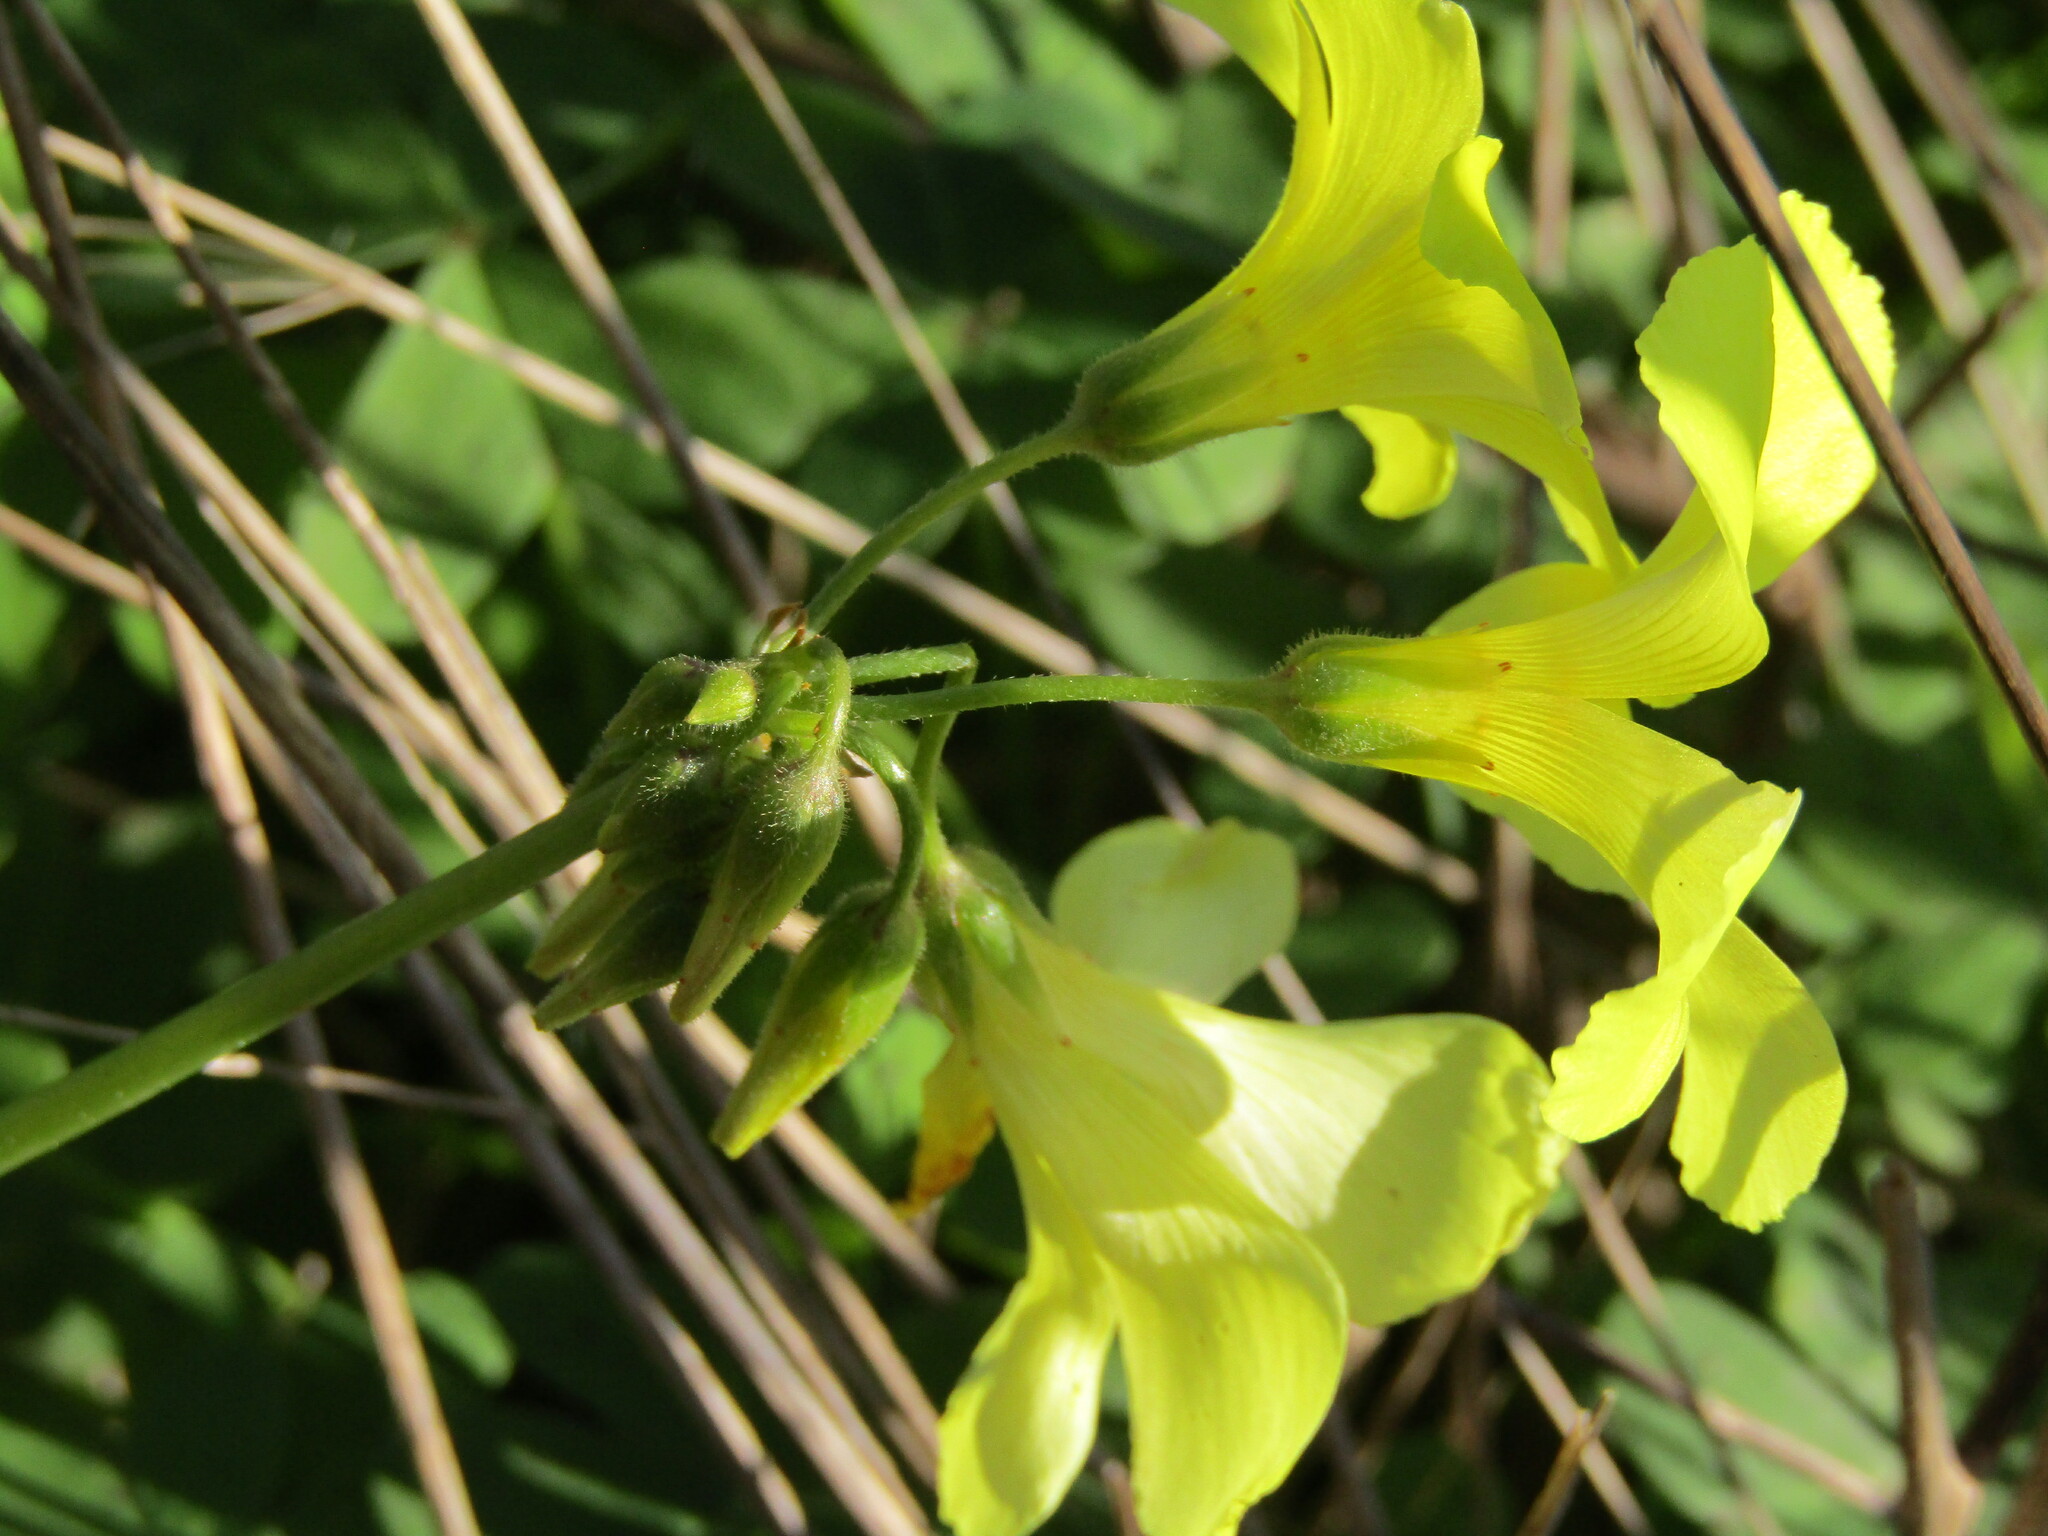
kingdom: Plantae
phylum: Tracheophyta
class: Magnoliopsida
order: Oxalidales
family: Oxalidaceae
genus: Oxalis
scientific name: Oxalis pes-caprae
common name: Bermuda-buttercup
